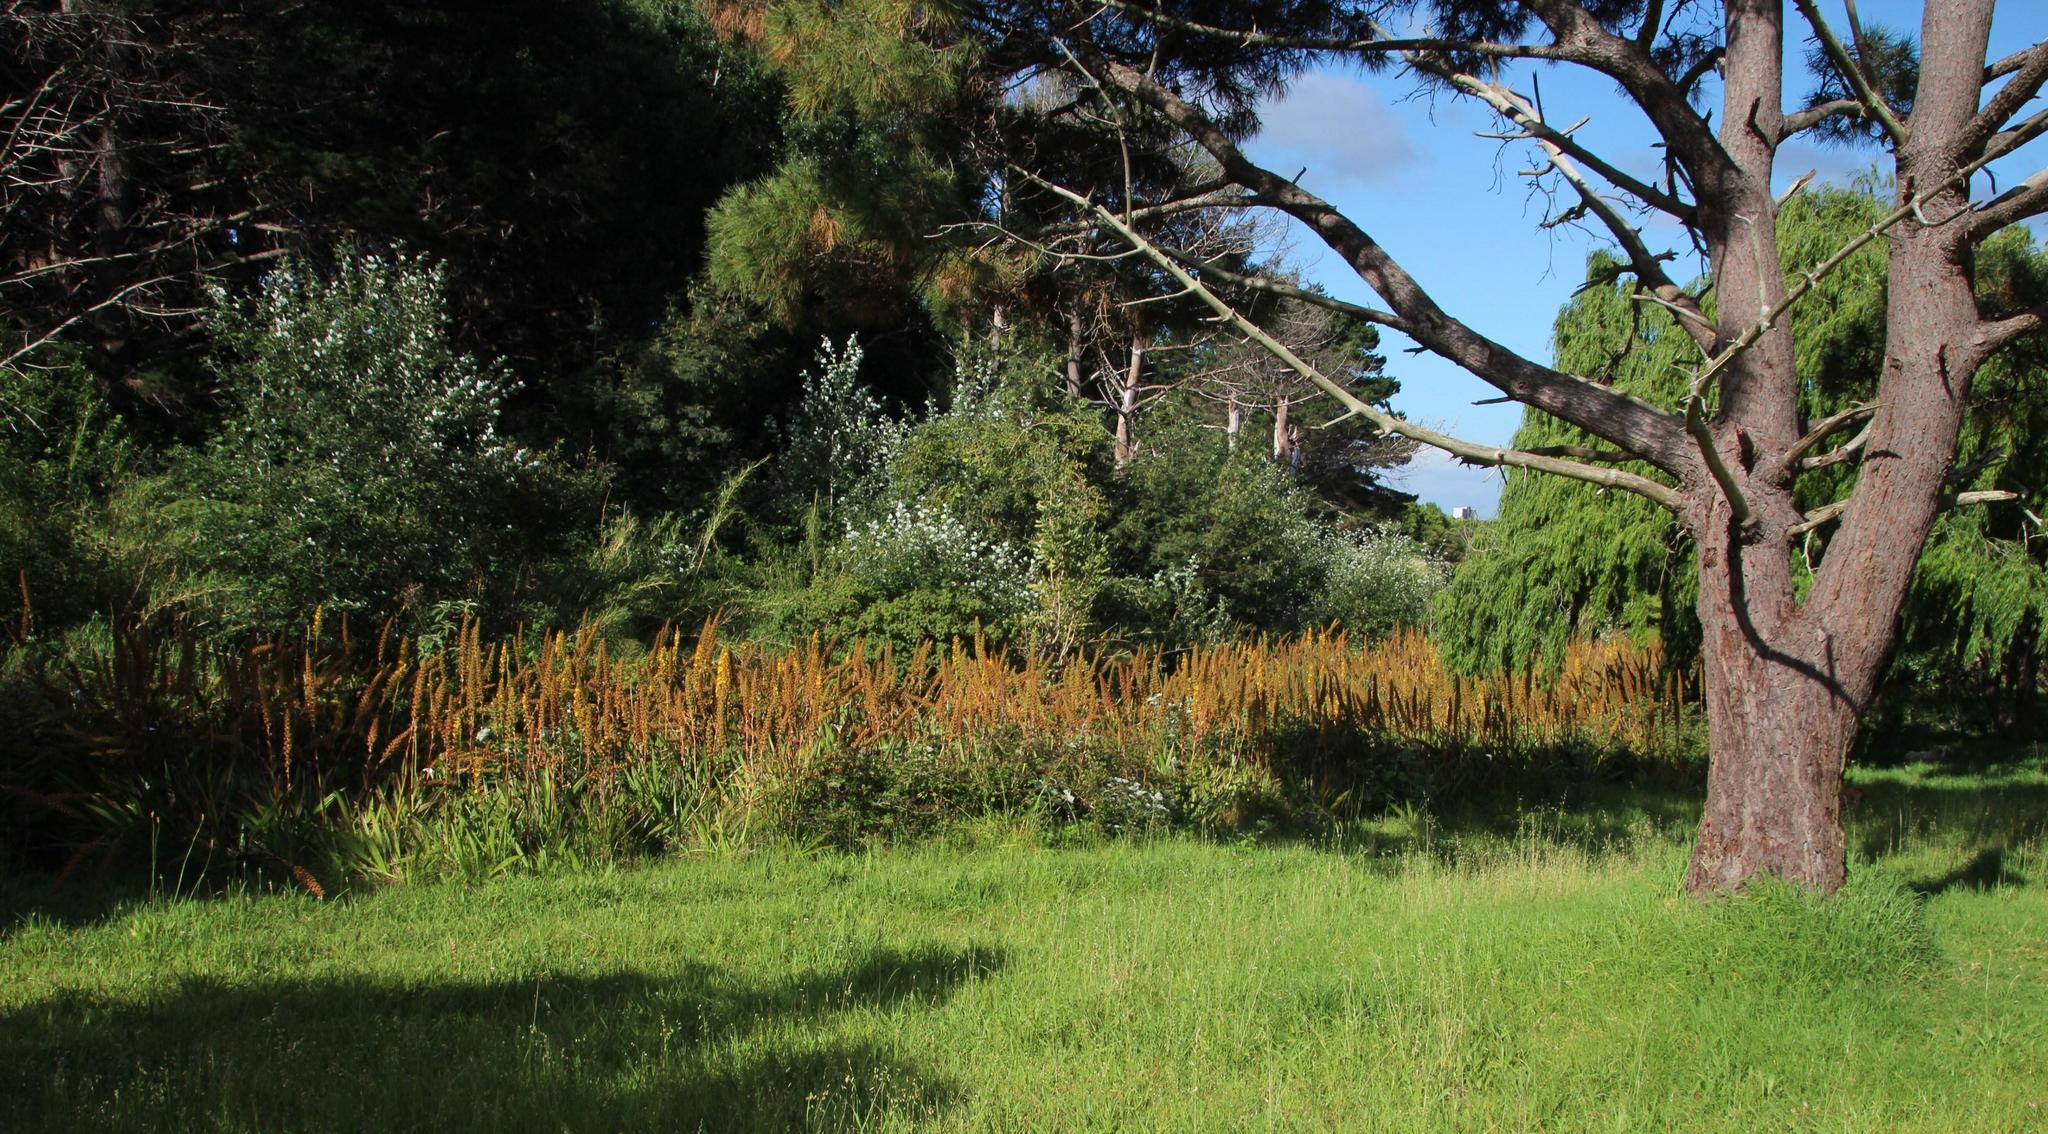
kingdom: Plantae
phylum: Tracheophyta
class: Liliopsida
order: Commelinales
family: Haemodoraceae
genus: Wachendorfia
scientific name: Wachendorfia thyrsiflora
